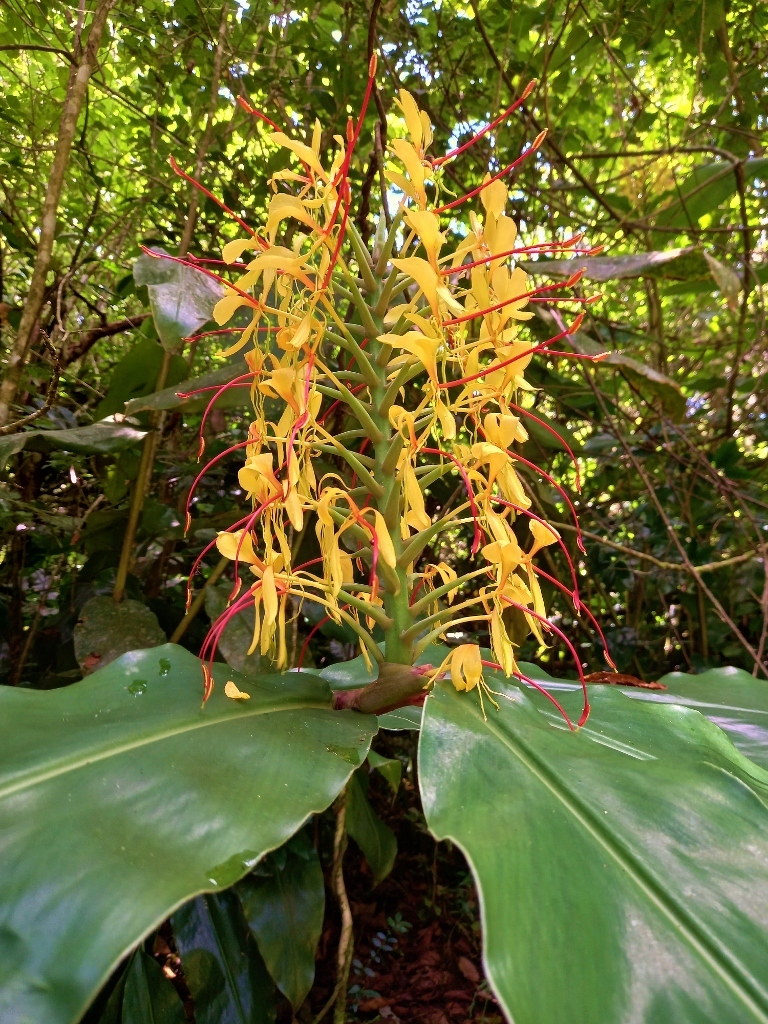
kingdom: Plantae
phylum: Tracheophyta
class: Liliopsida
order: Zingiberales
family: Zingiberaceae
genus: Hedychium
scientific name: Hedychium gardnerianum
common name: Himalayan ginger
